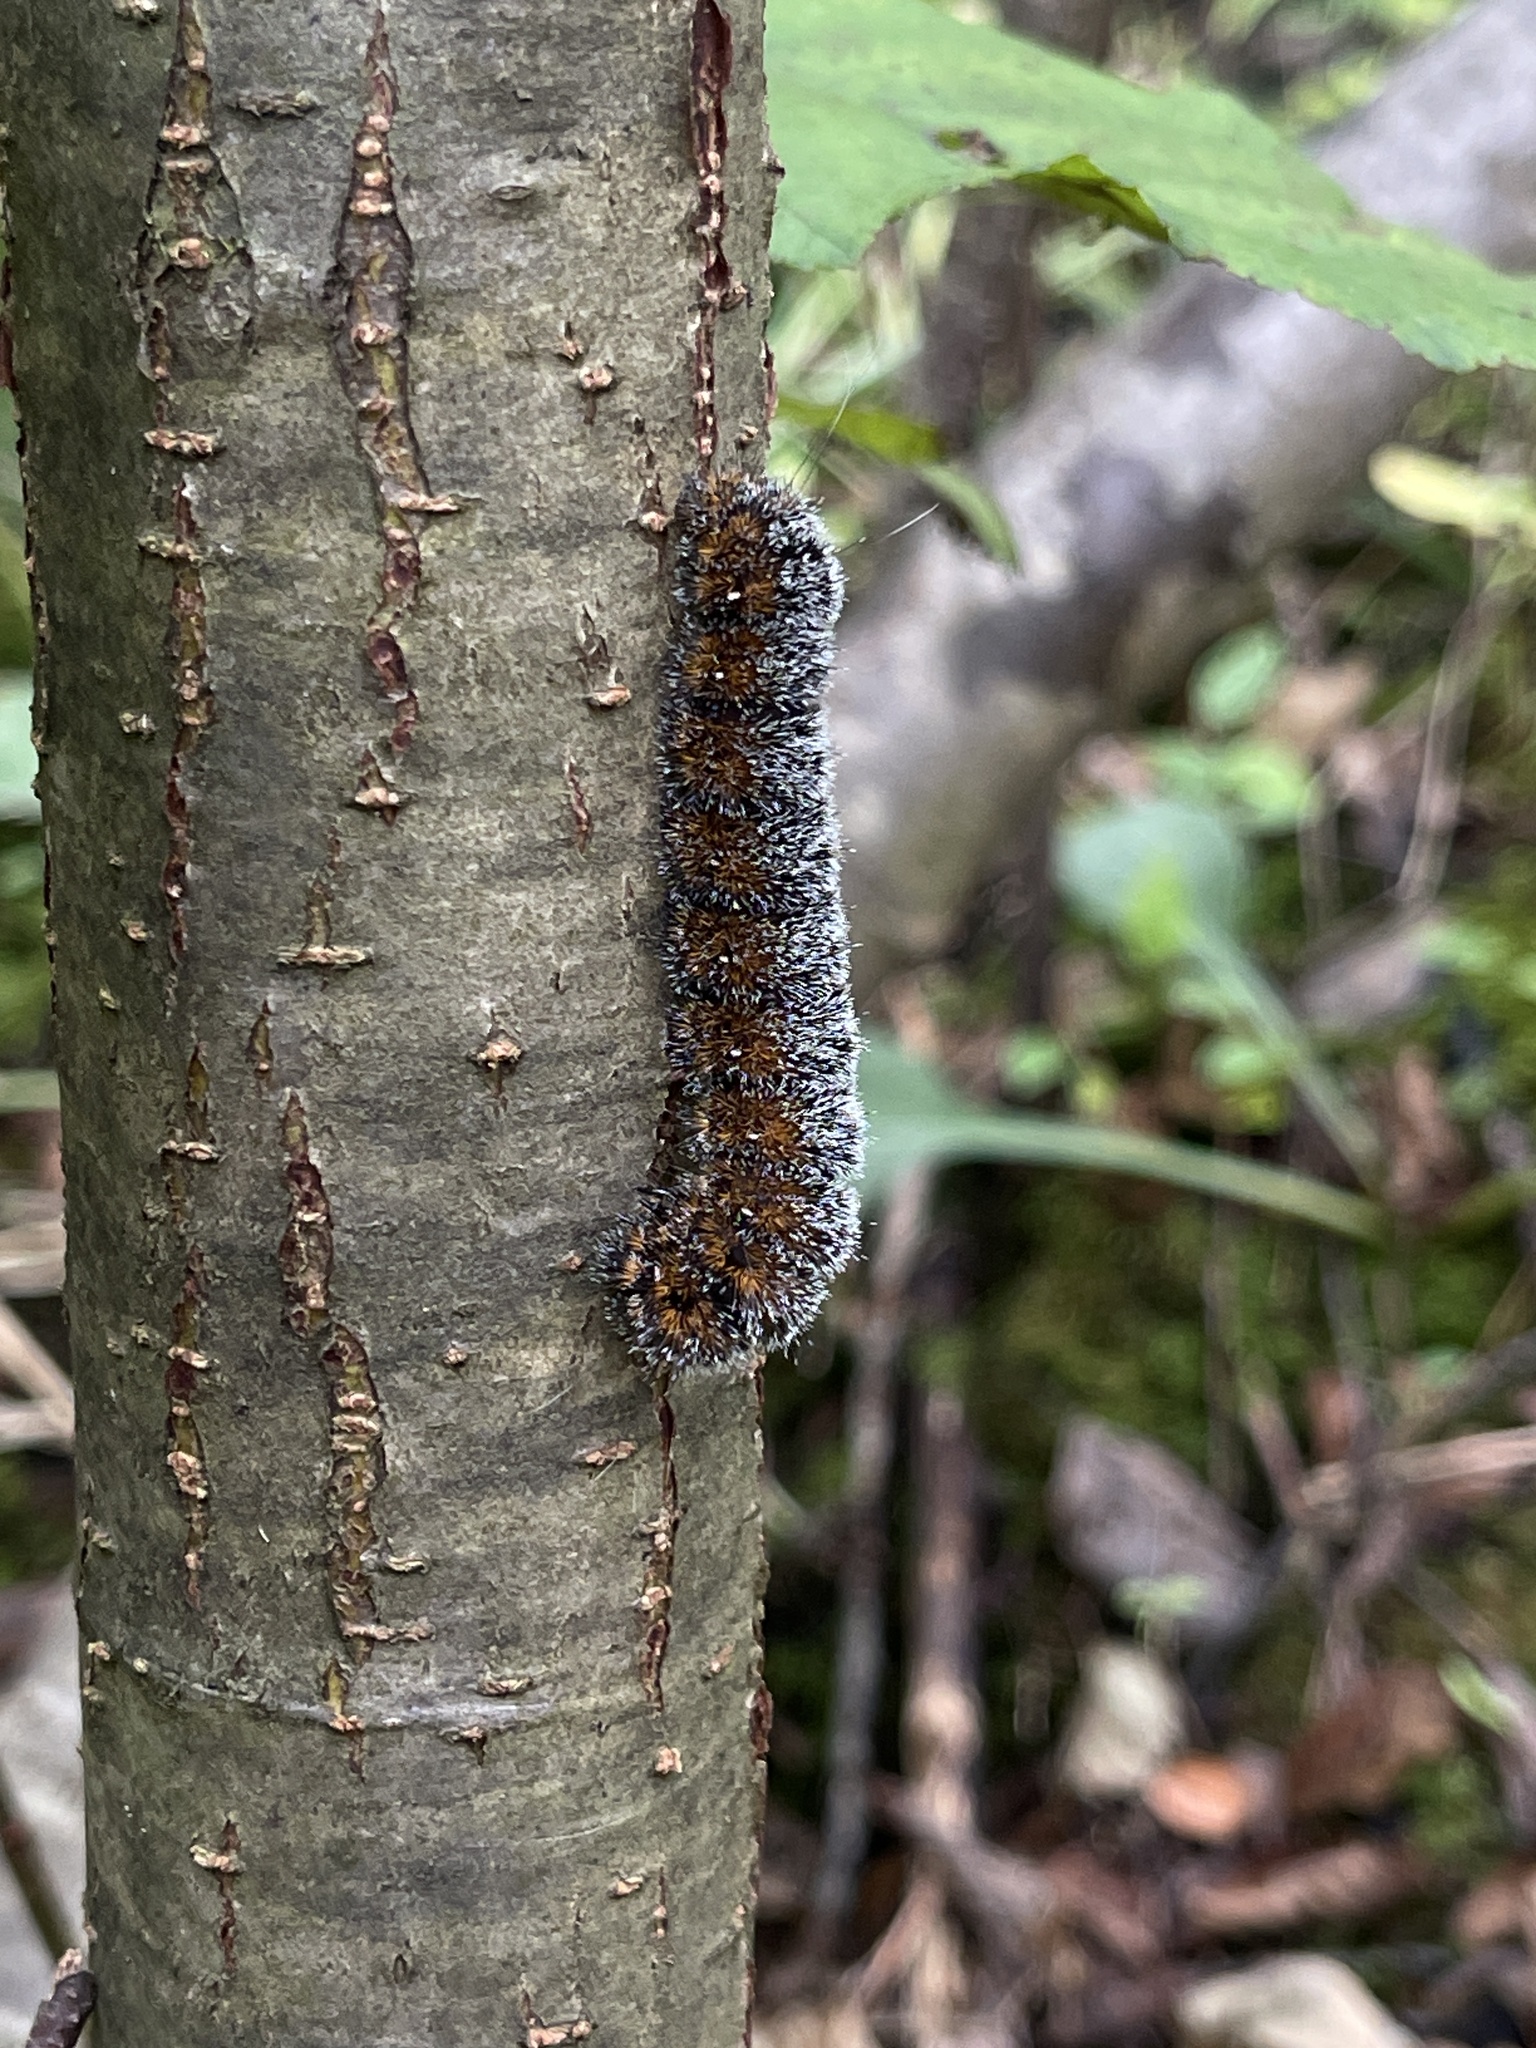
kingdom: Animalia
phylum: Arthropoda
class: Insecta
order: Lepidoptera
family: Noctuidae
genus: Acronicta
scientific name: Acronicta hastulifera
